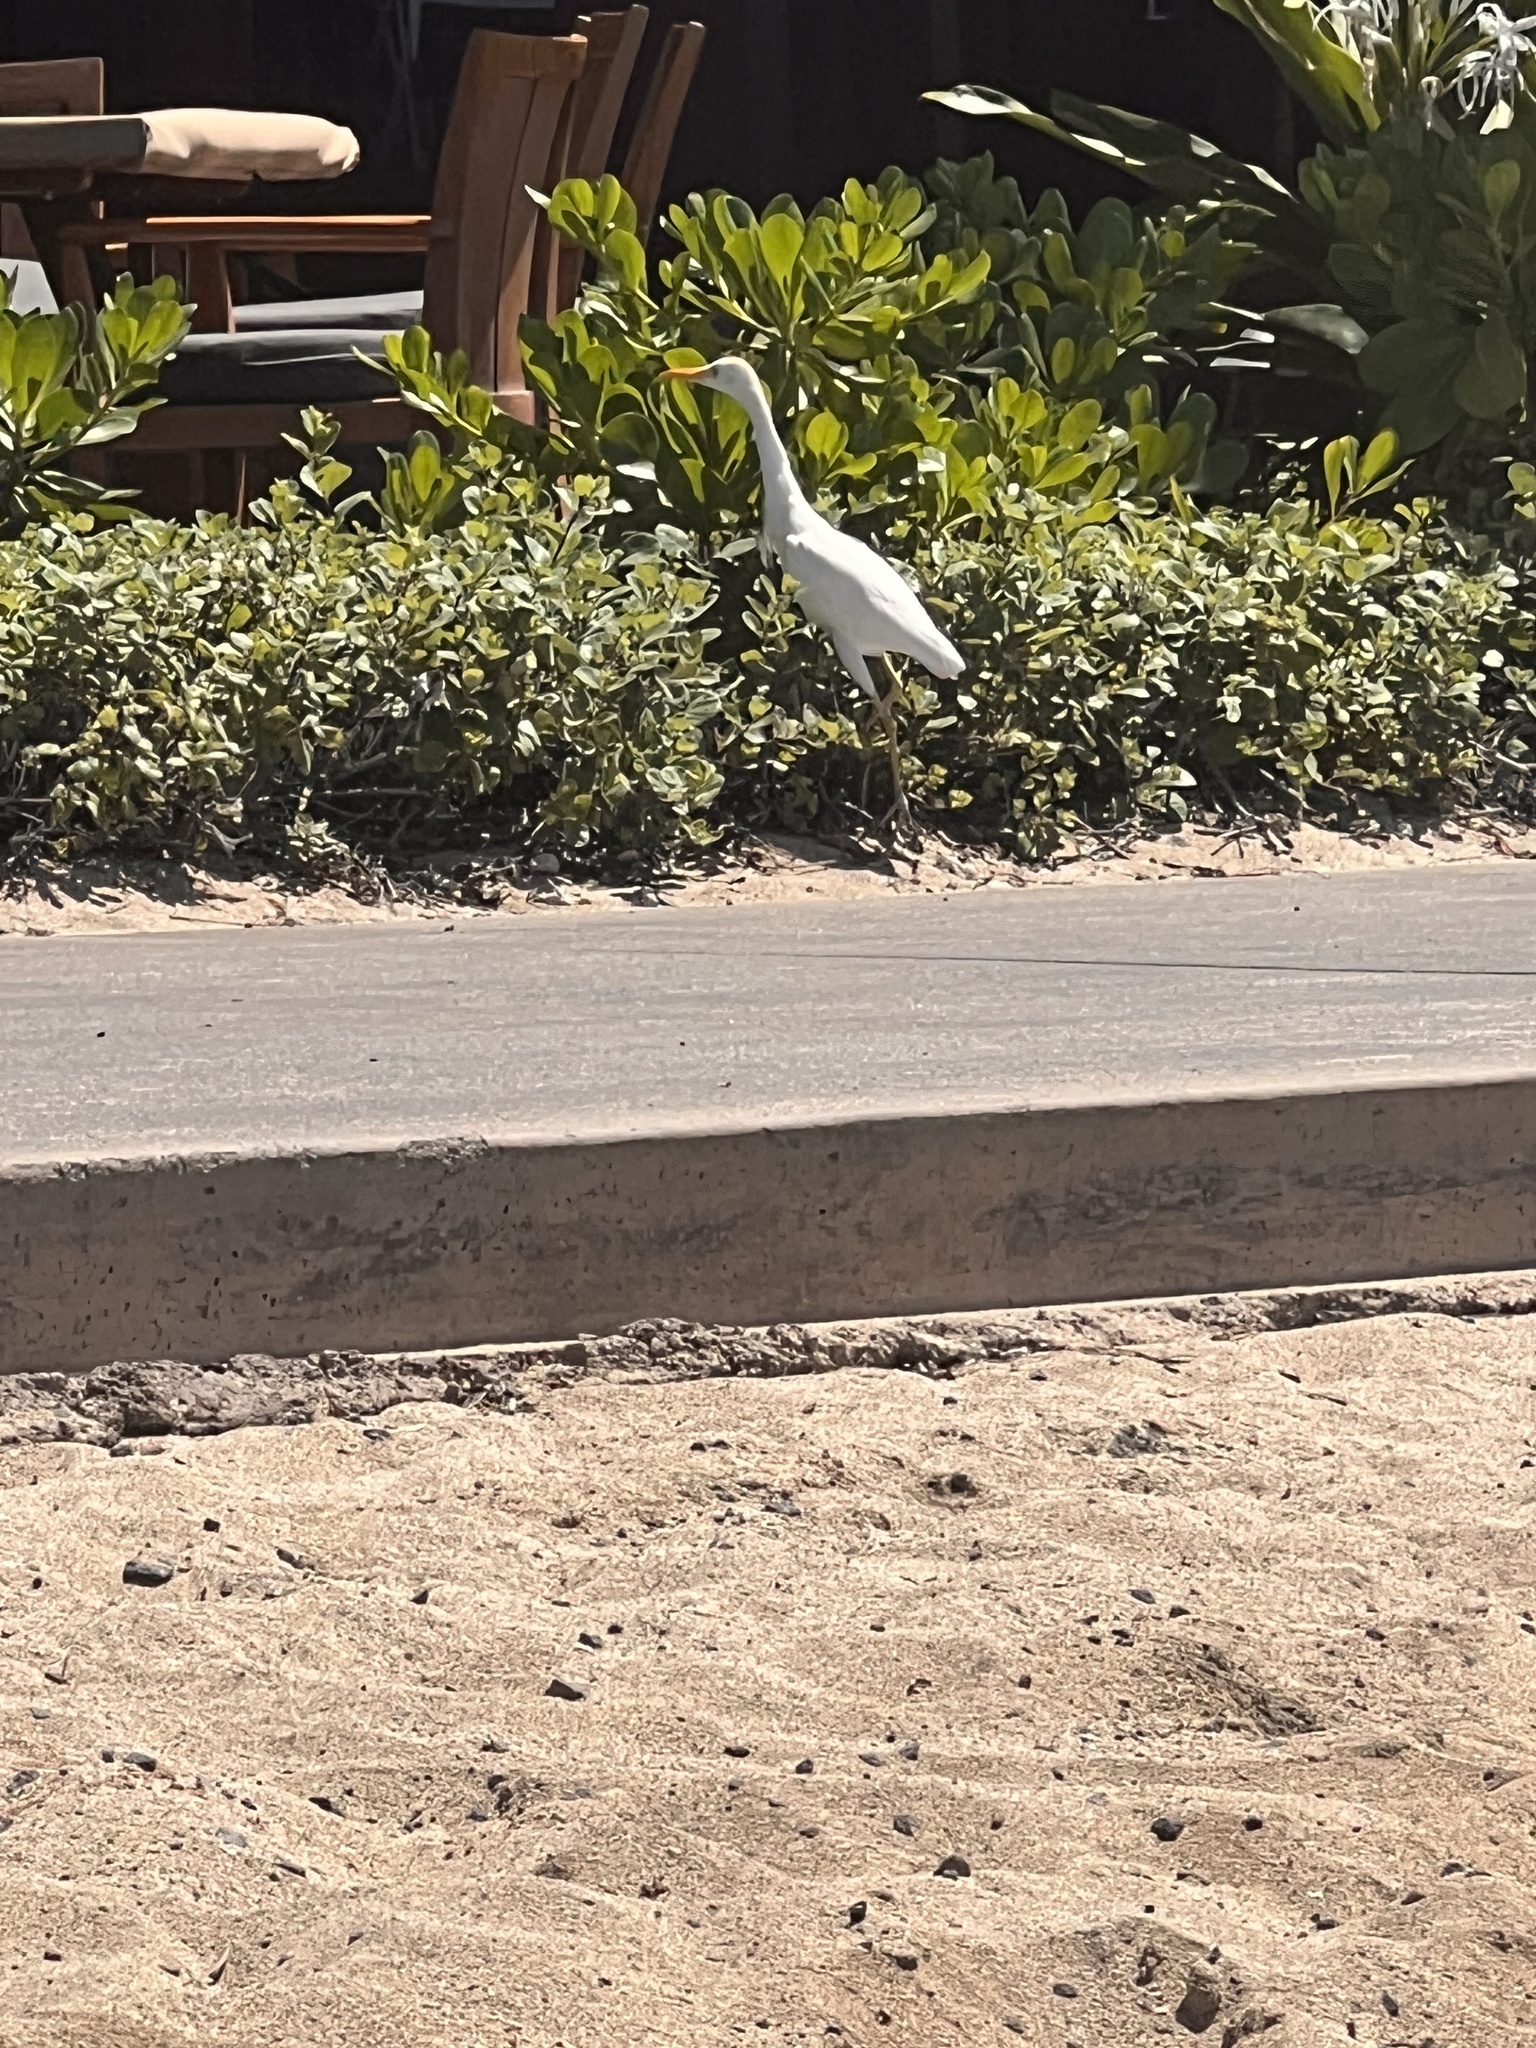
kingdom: Animalia
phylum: Chordata
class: Aves
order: Pelecaniformes
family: Ardeidae
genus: Bubulcus
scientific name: Bubulcus ibis
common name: Cattle egret
